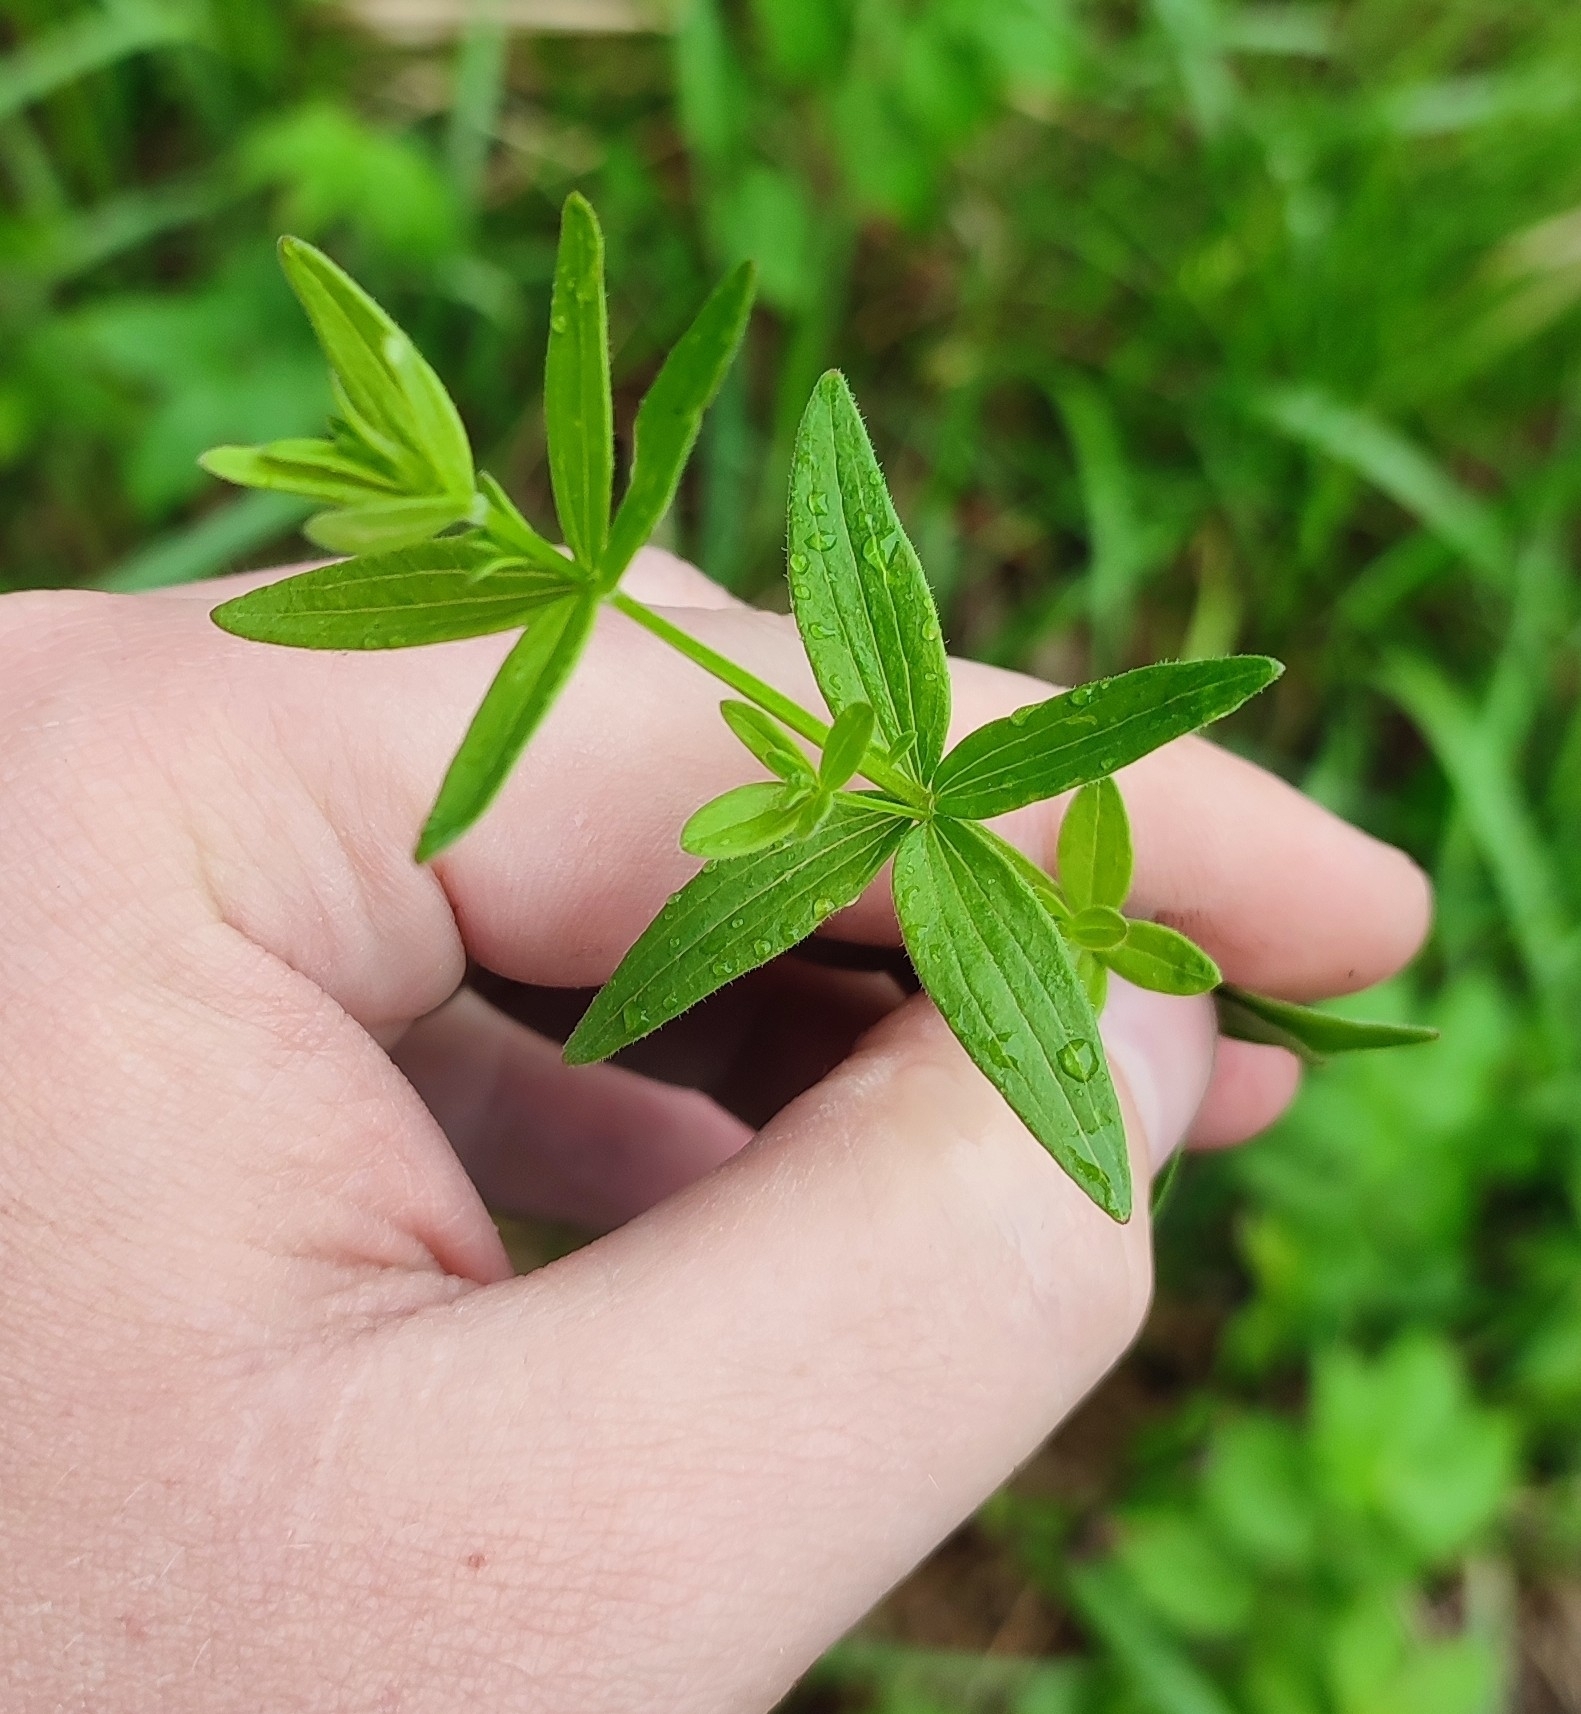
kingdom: Plantae
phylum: Tracheophyta
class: Magnoliopsida
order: Gentianales
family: Rubiaceae
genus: Galium
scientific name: Galium boreale
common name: Northern bedstraw
